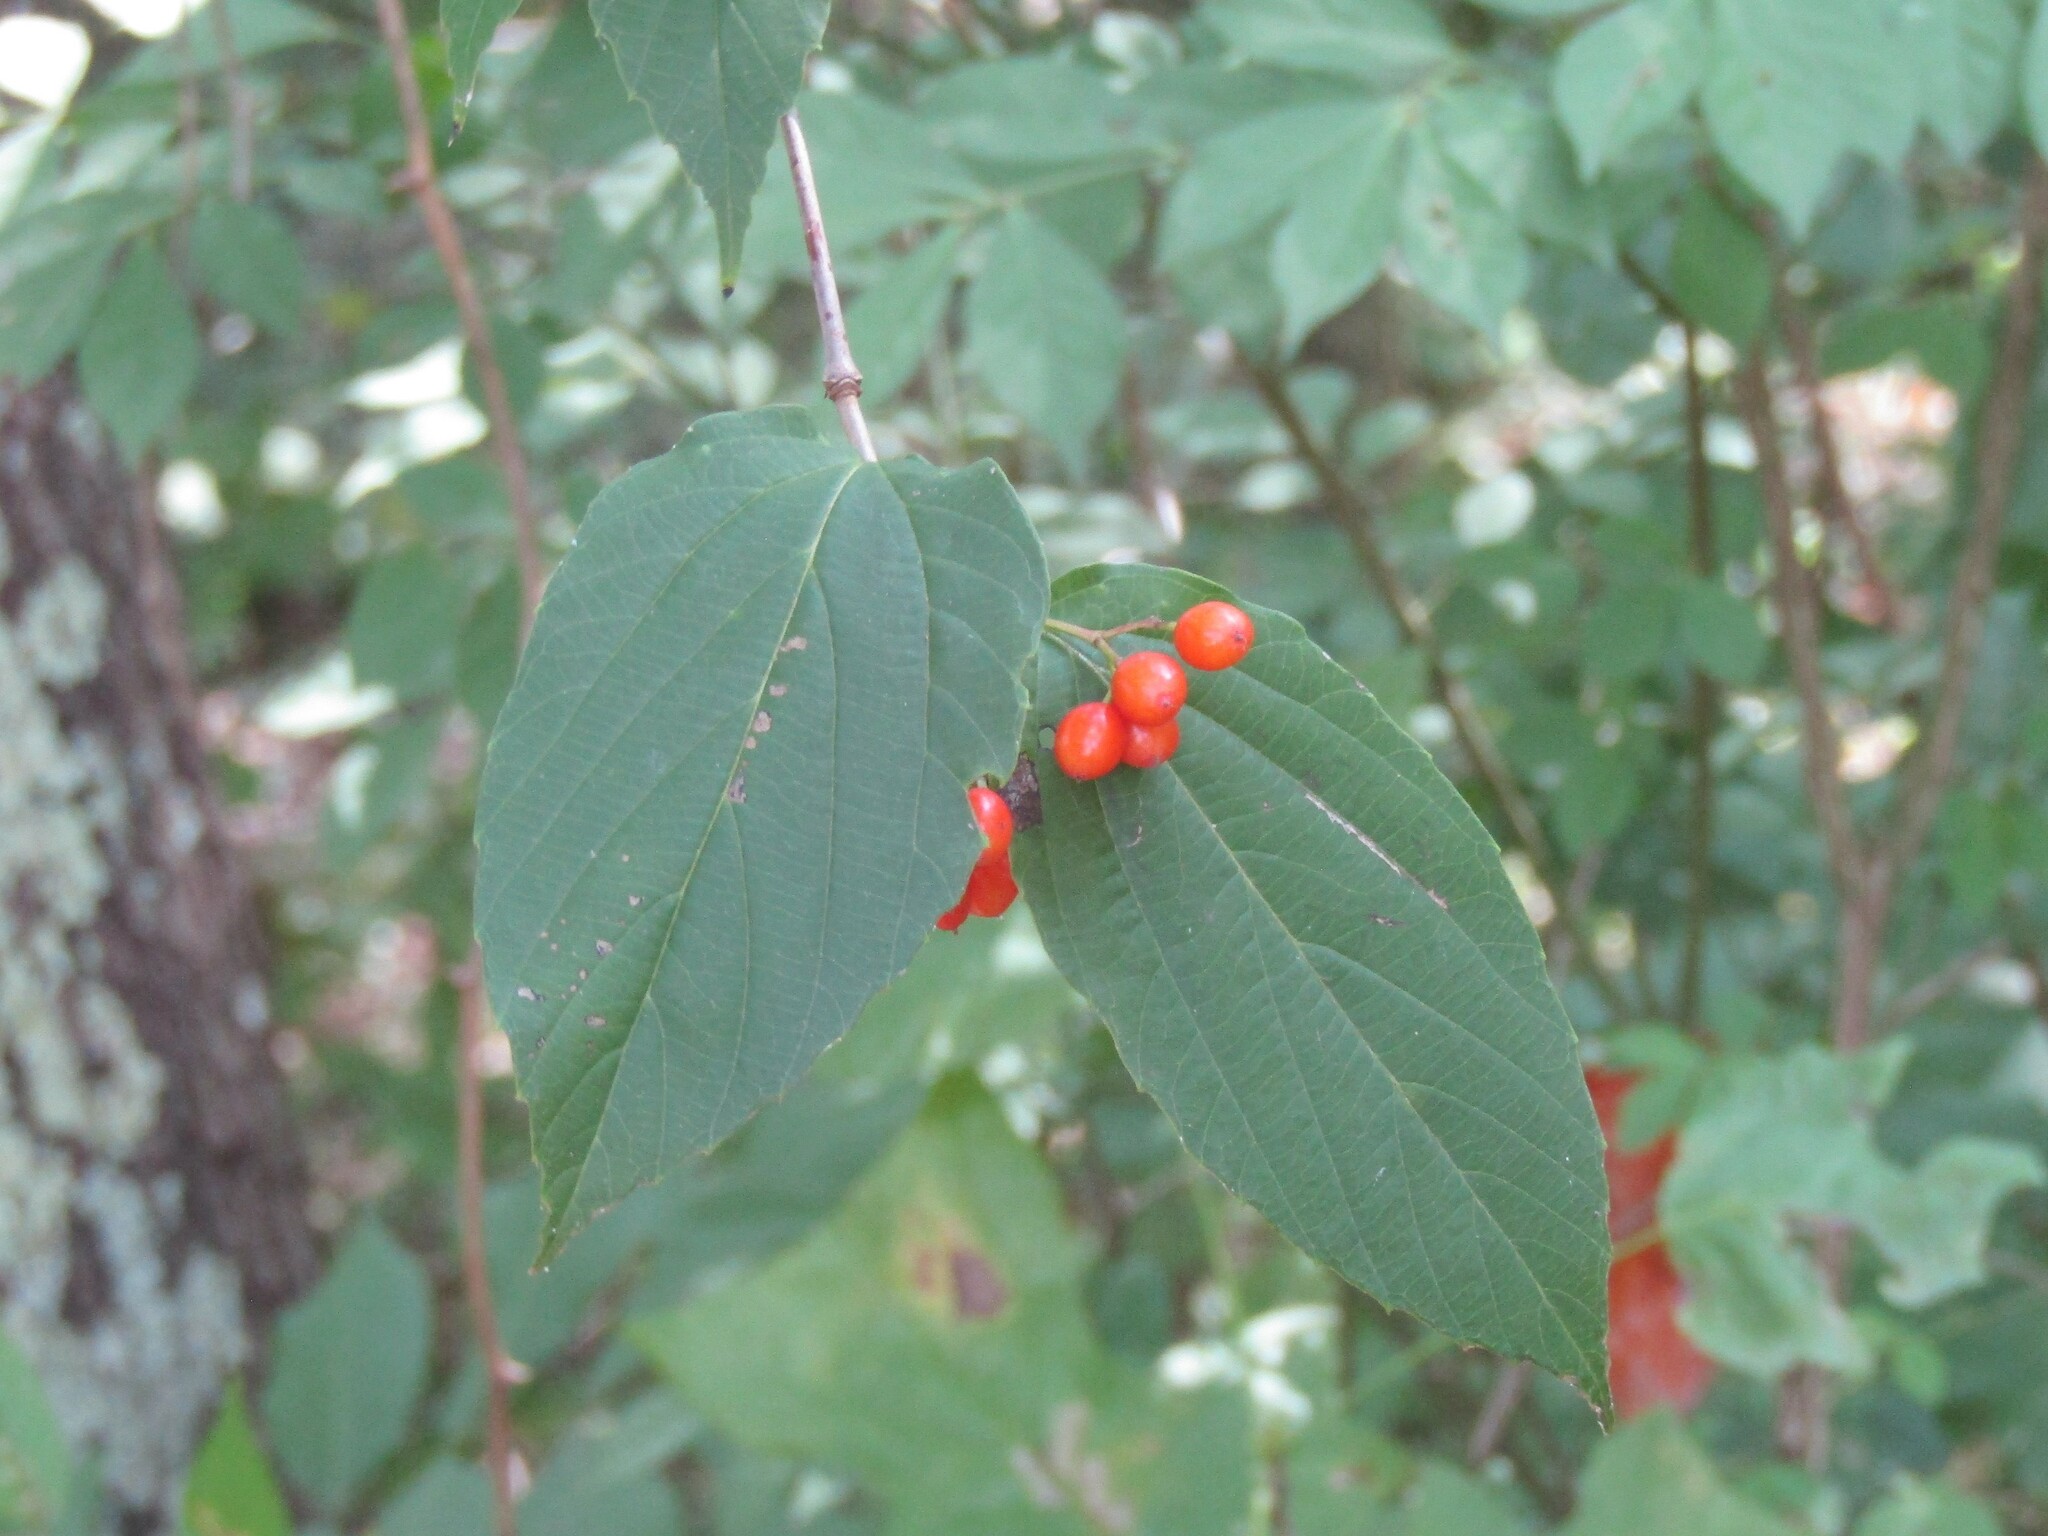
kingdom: Plantae
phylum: Tracheophyta
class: Magnoliopsida
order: Dipsacales
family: Viburnaceae
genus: Viburnum
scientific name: Viburnum setigerum
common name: Tea viburnum
